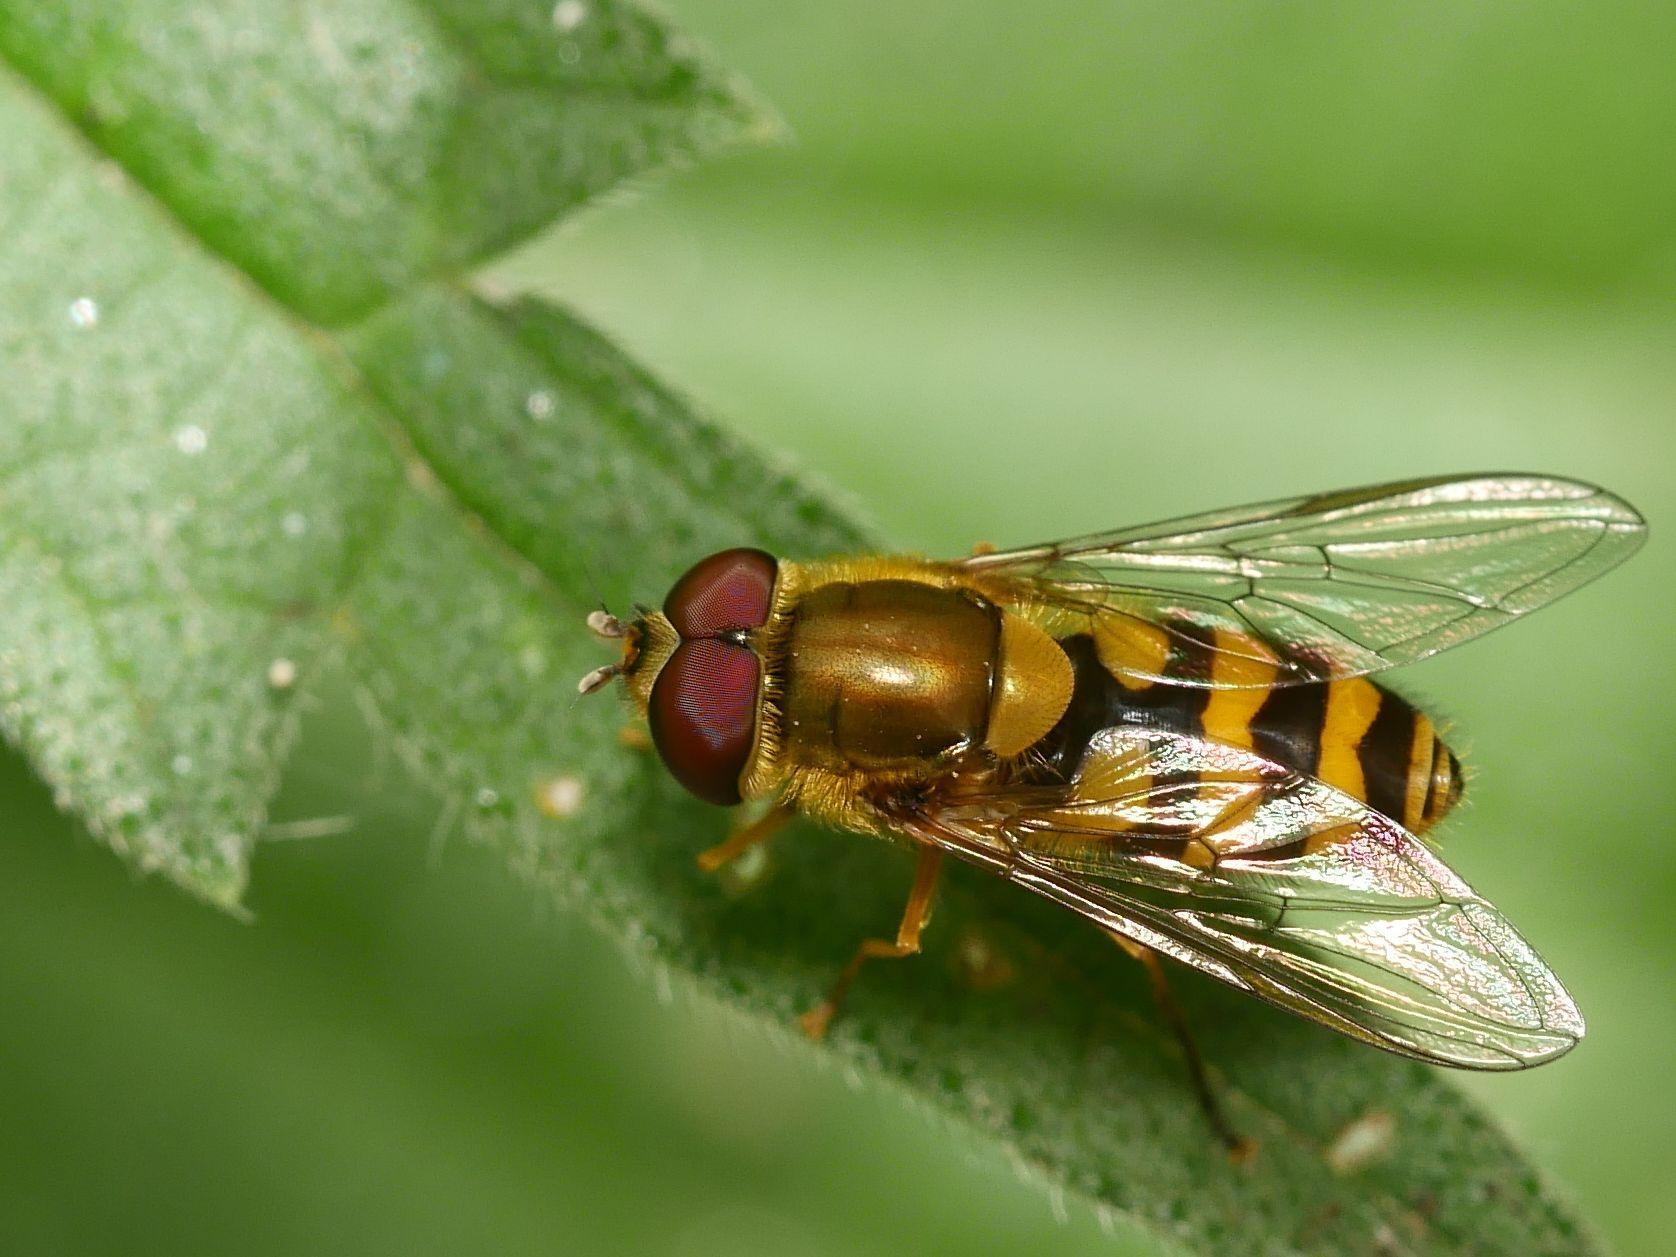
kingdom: Animalia
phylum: Arthropoda
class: Insecta
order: Diptera
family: Syrphidae
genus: Syrphus
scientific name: Syrphus
